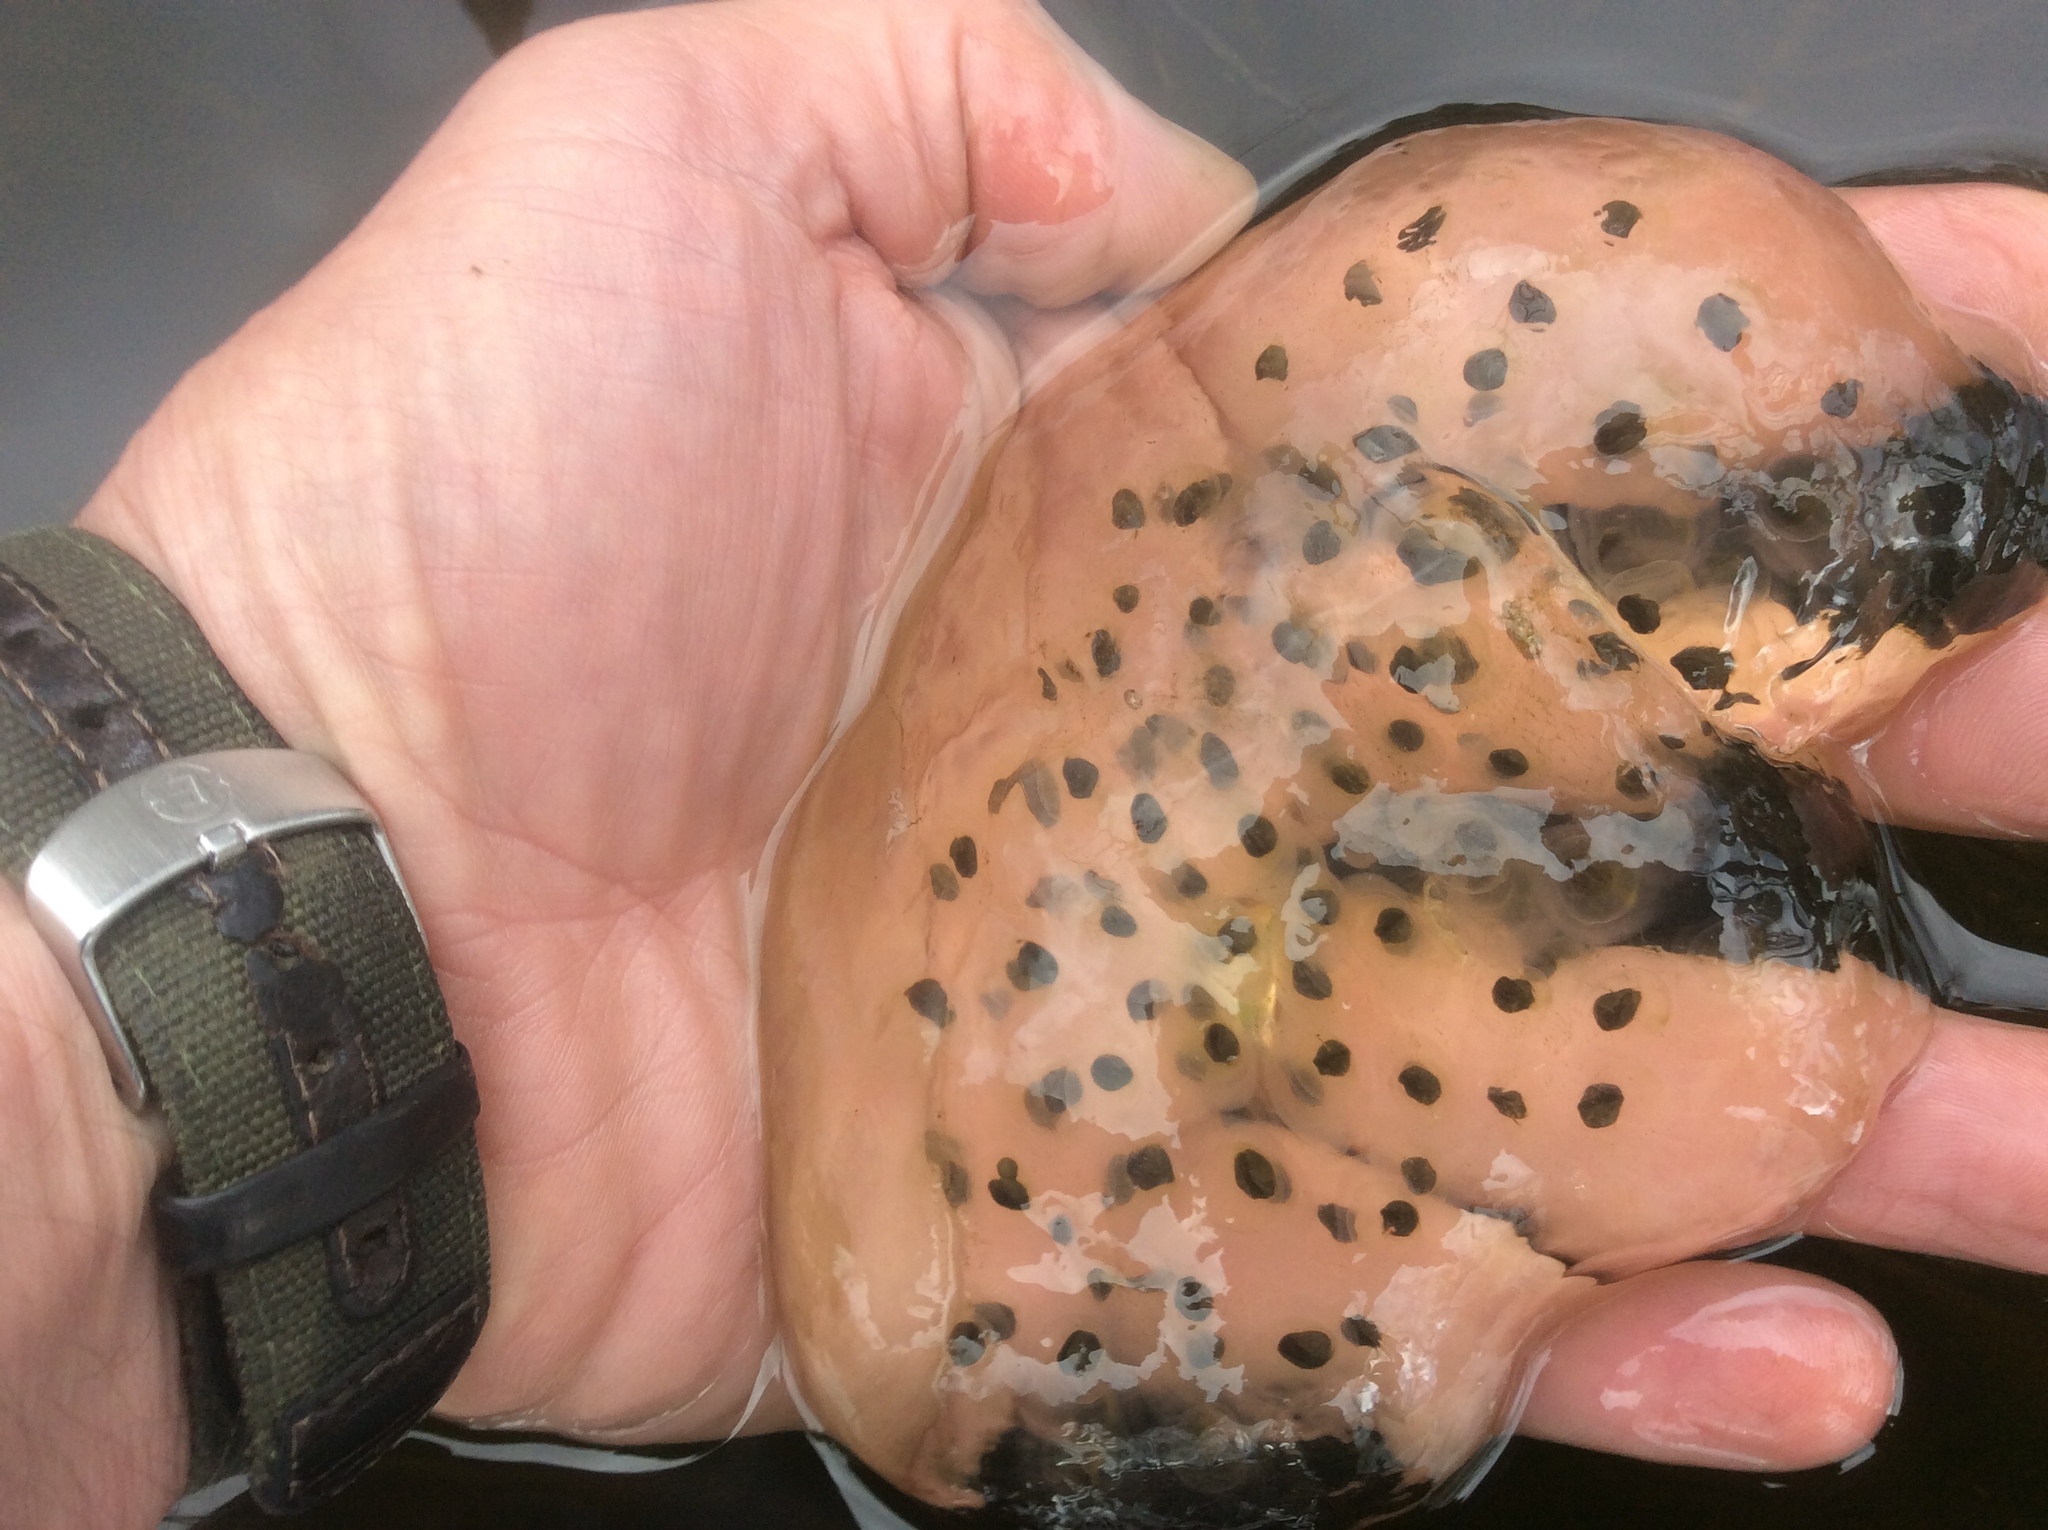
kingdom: Animalia
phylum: Chordata
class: Amphibia
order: Caudata
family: Ambystomatidae
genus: Ambystoma
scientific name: Ambystoma maculatum
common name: Spotted salamander
